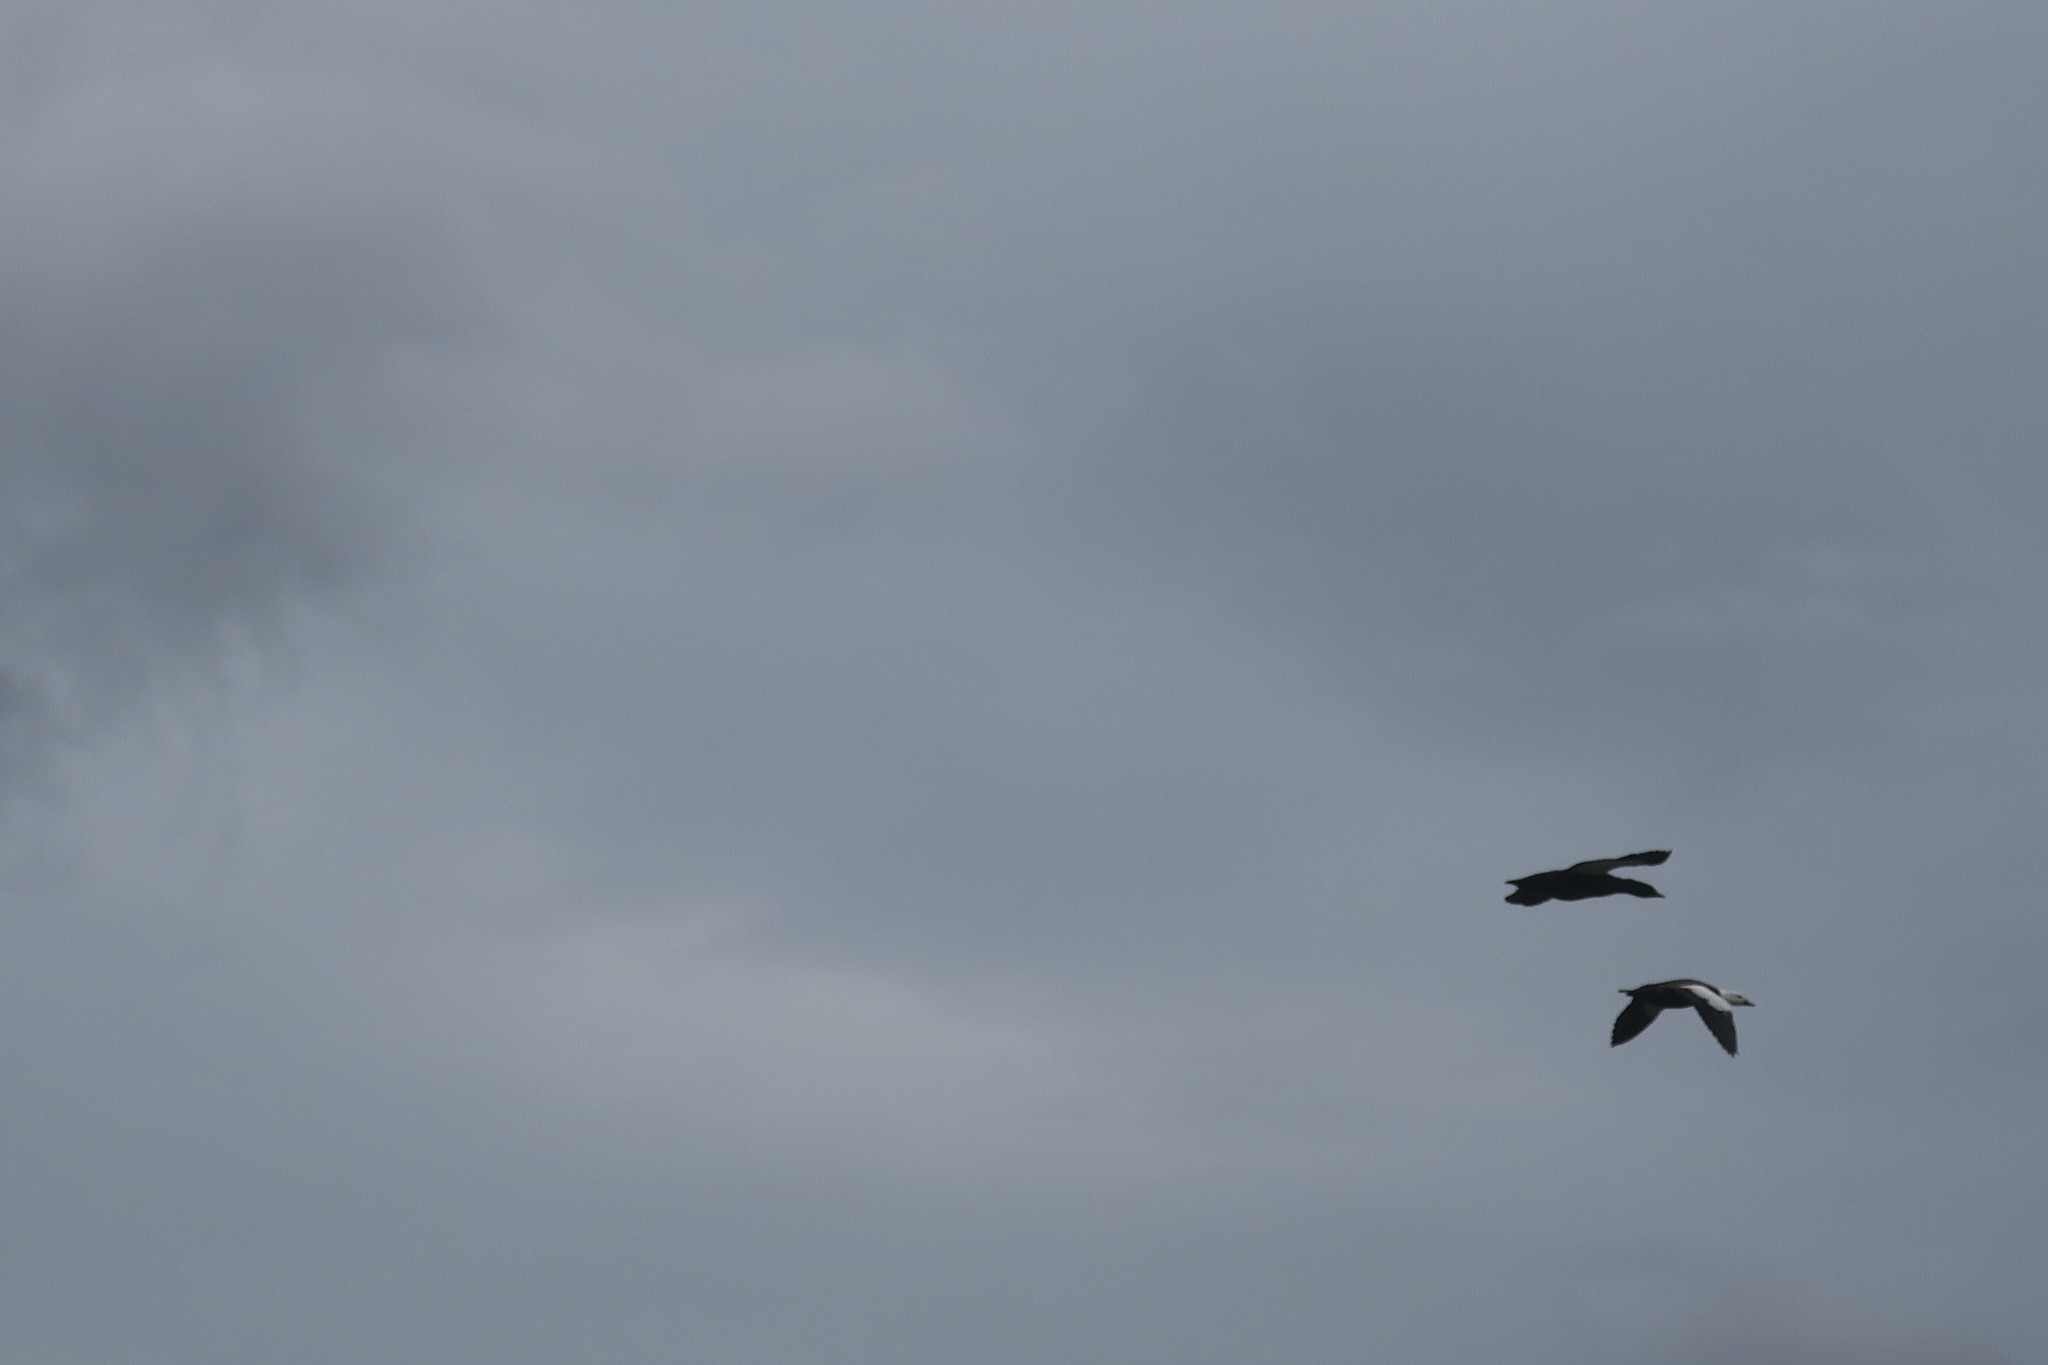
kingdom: Animalia
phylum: Chordata
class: Aves
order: Anseriformes
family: Anatidae
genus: Tadorna
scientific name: Tadorna variegata
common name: Paradise shelduck
